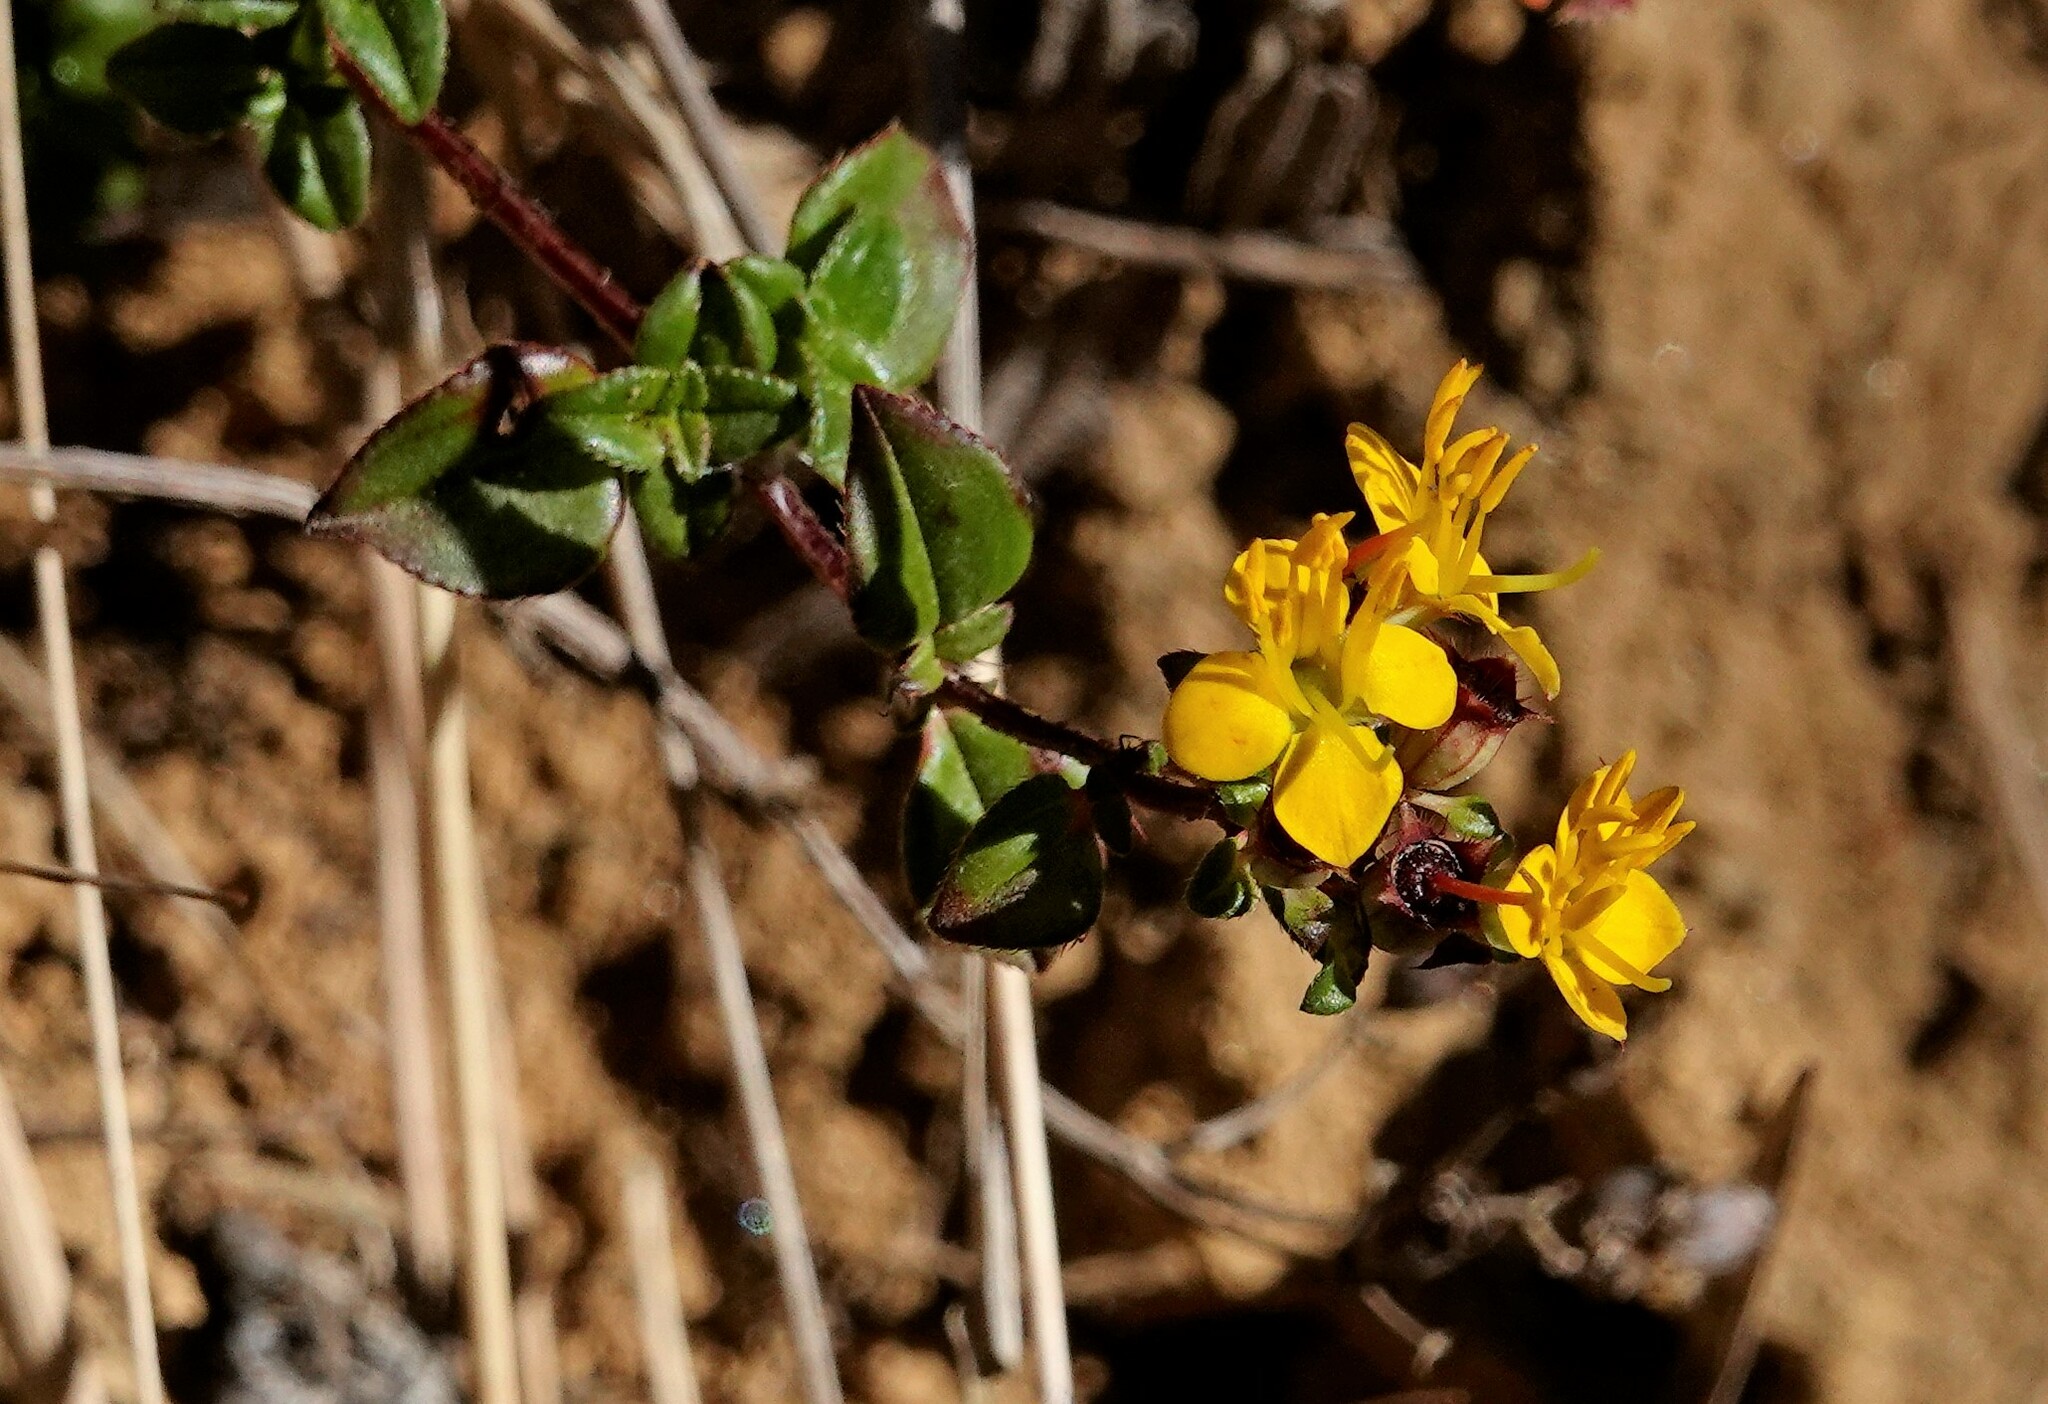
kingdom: Plantae
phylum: Tracheophyta
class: Magnoliopsida
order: Myrtales
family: Melastomataceae
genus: Chaetolepis
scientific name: Chaetolepis alpina
